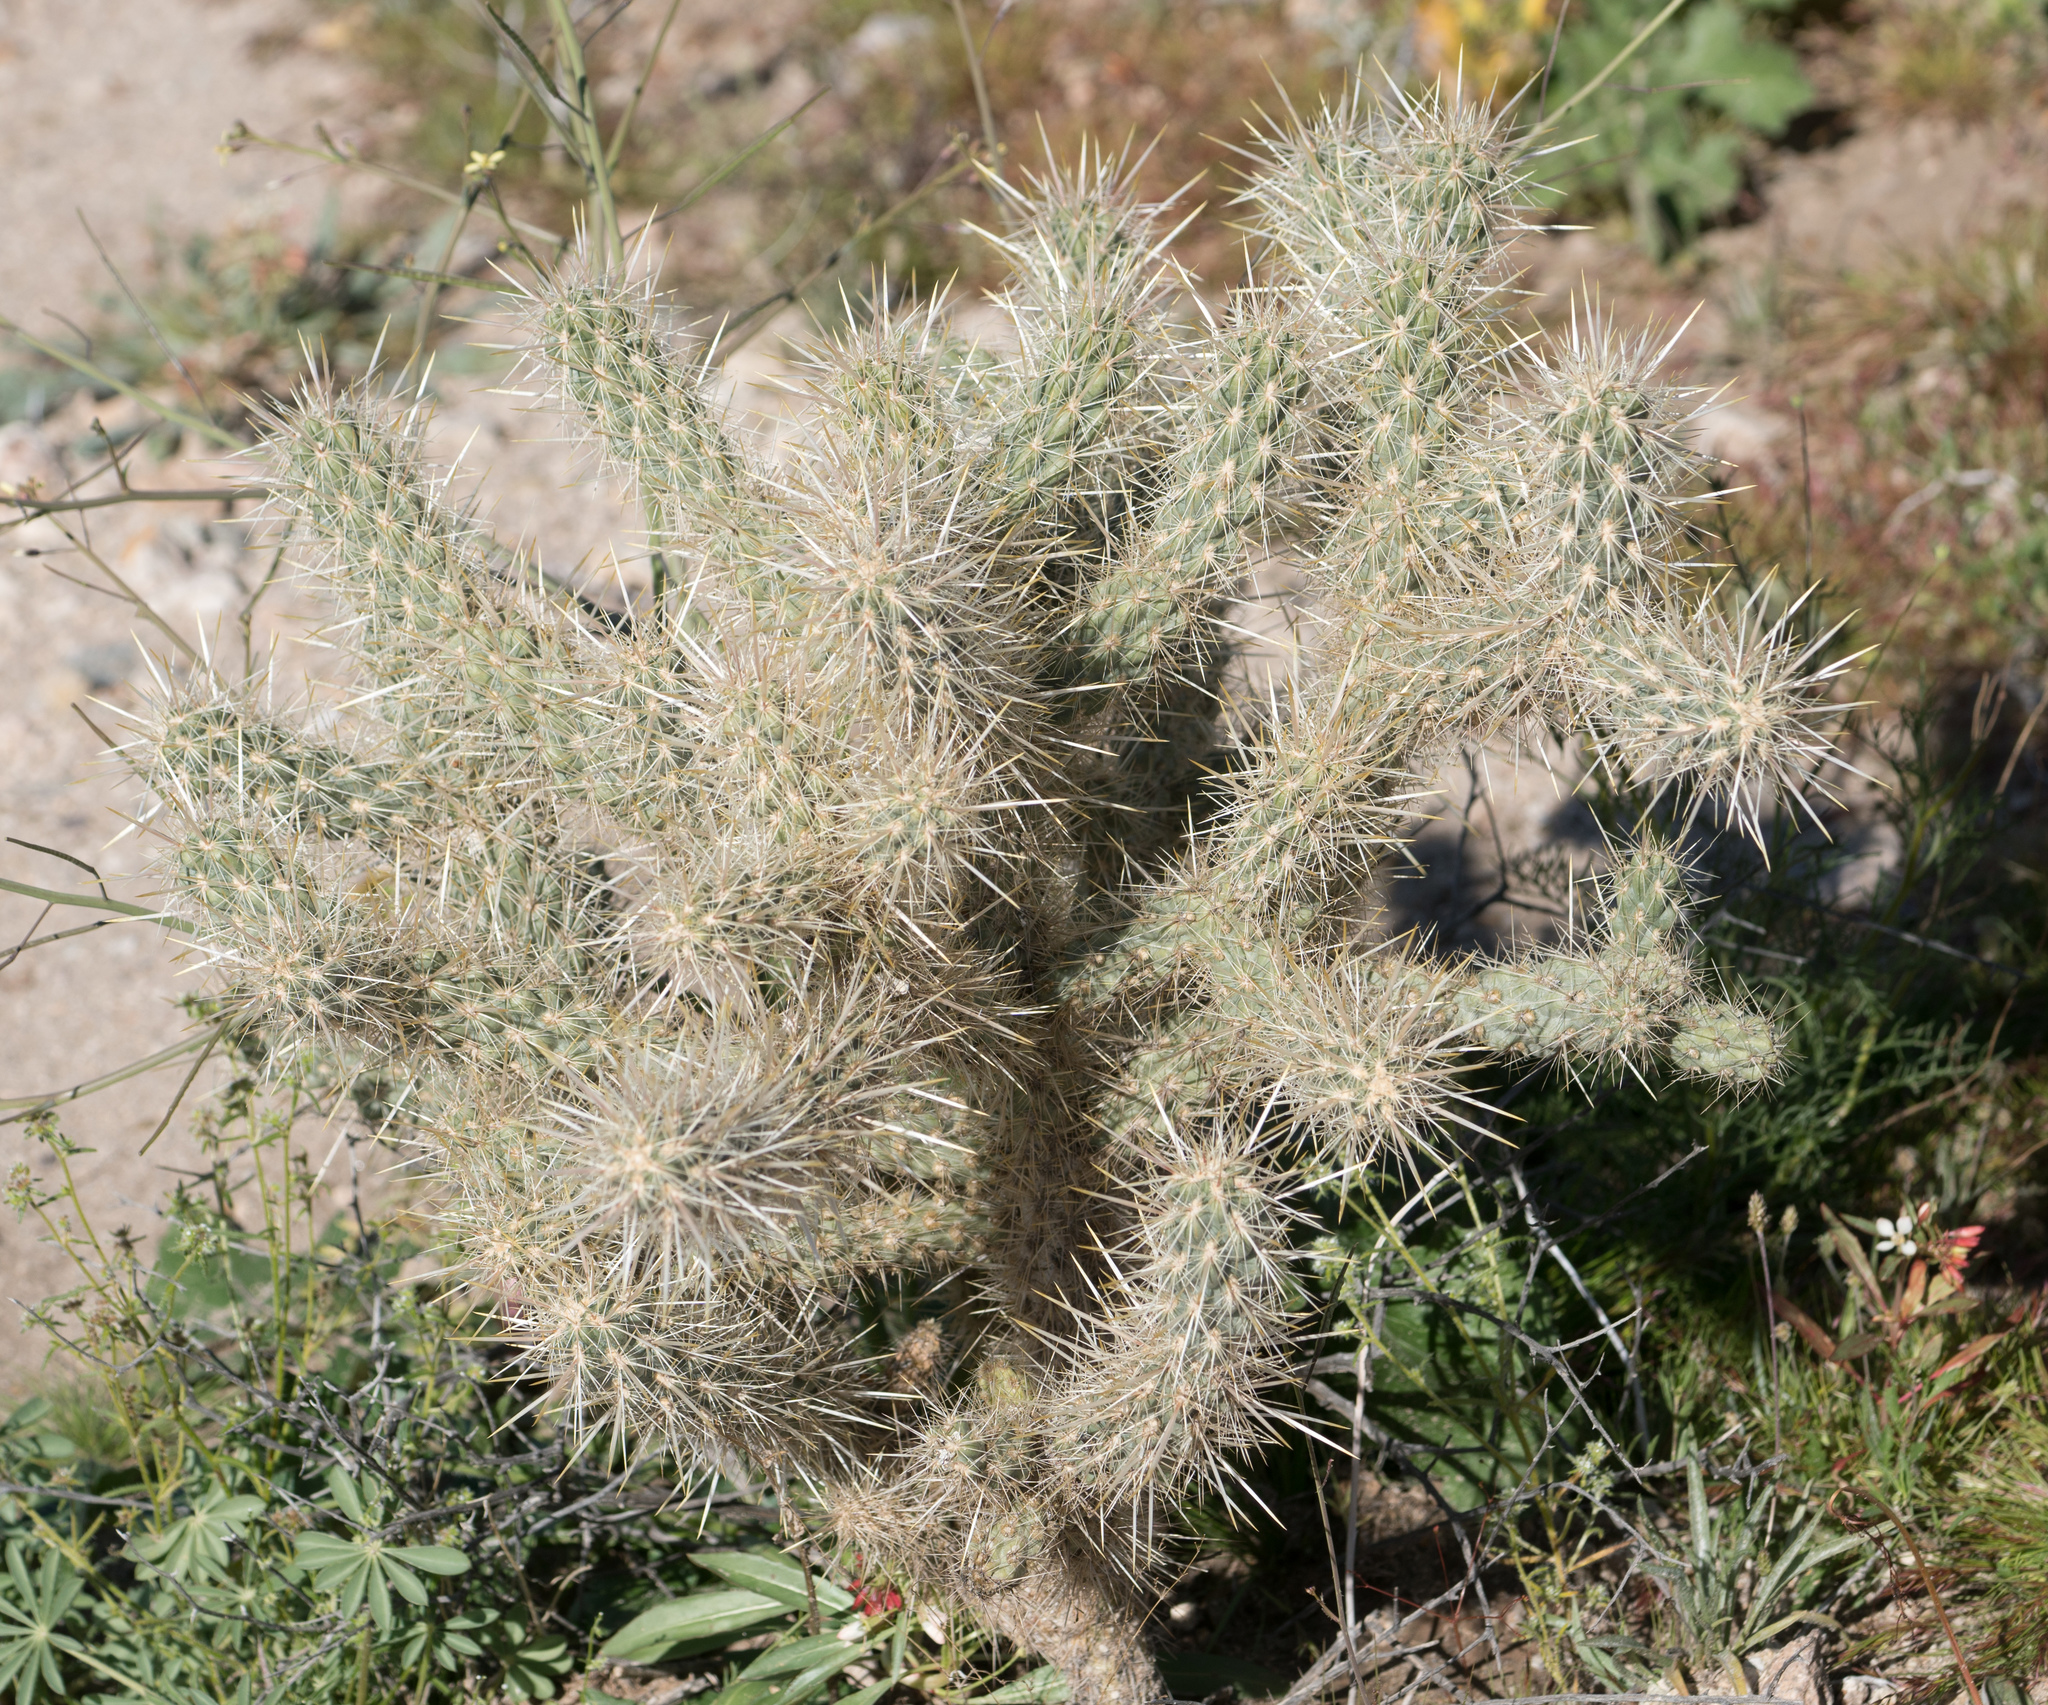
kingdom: Plantae
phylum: Tracheophyta
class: Magnoliopsida
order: Caryophyllales
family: Cactaceae
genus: Cylindropuntia
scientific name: Cylindropuntia echinocarpa
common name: Ground cholla
